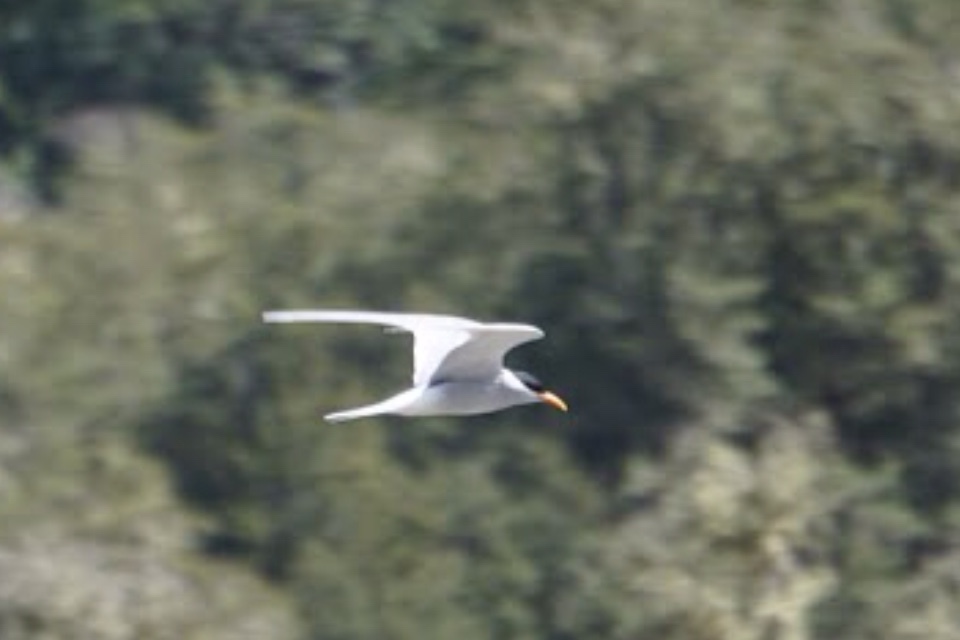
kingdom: Animalia
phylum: Chordata
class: Aves
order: Charadriiformes
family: Laridae
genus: Chlidonias
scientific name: Chlidonias albostriatus
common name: Black-fronted tern
